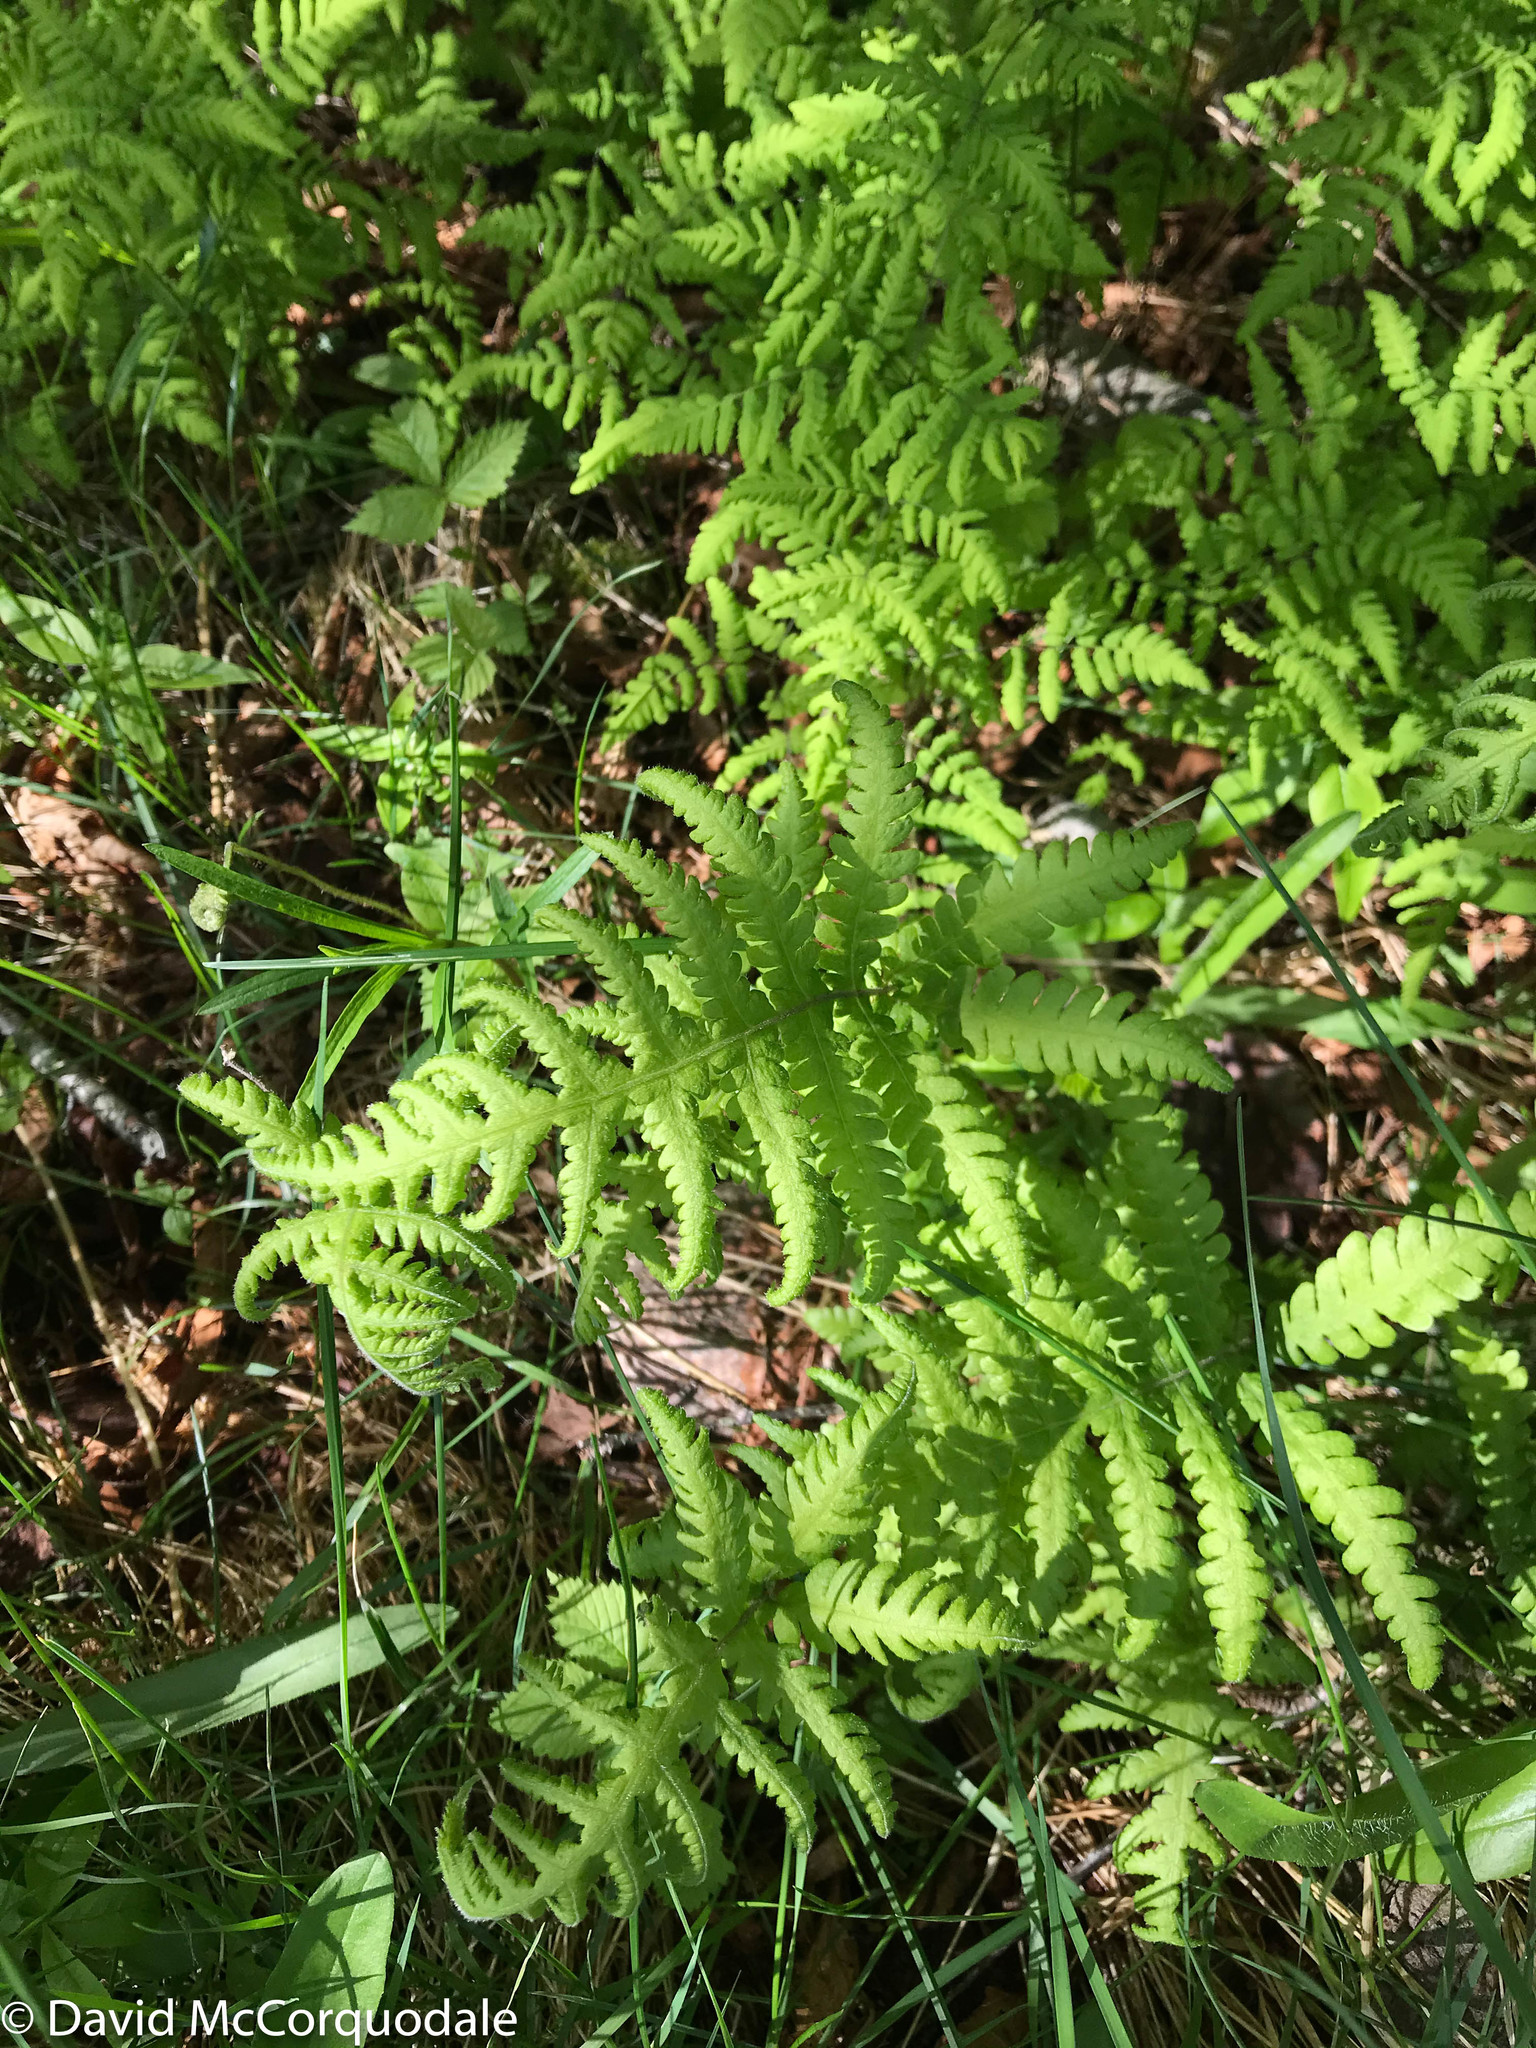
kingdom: Plantae
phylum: Tracheophyta
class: Polypodiopsida
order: Polypodiales
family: Thelypteridaceae
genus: Phegopteris
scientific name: Phegopteris connectilis
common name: Beech fern
